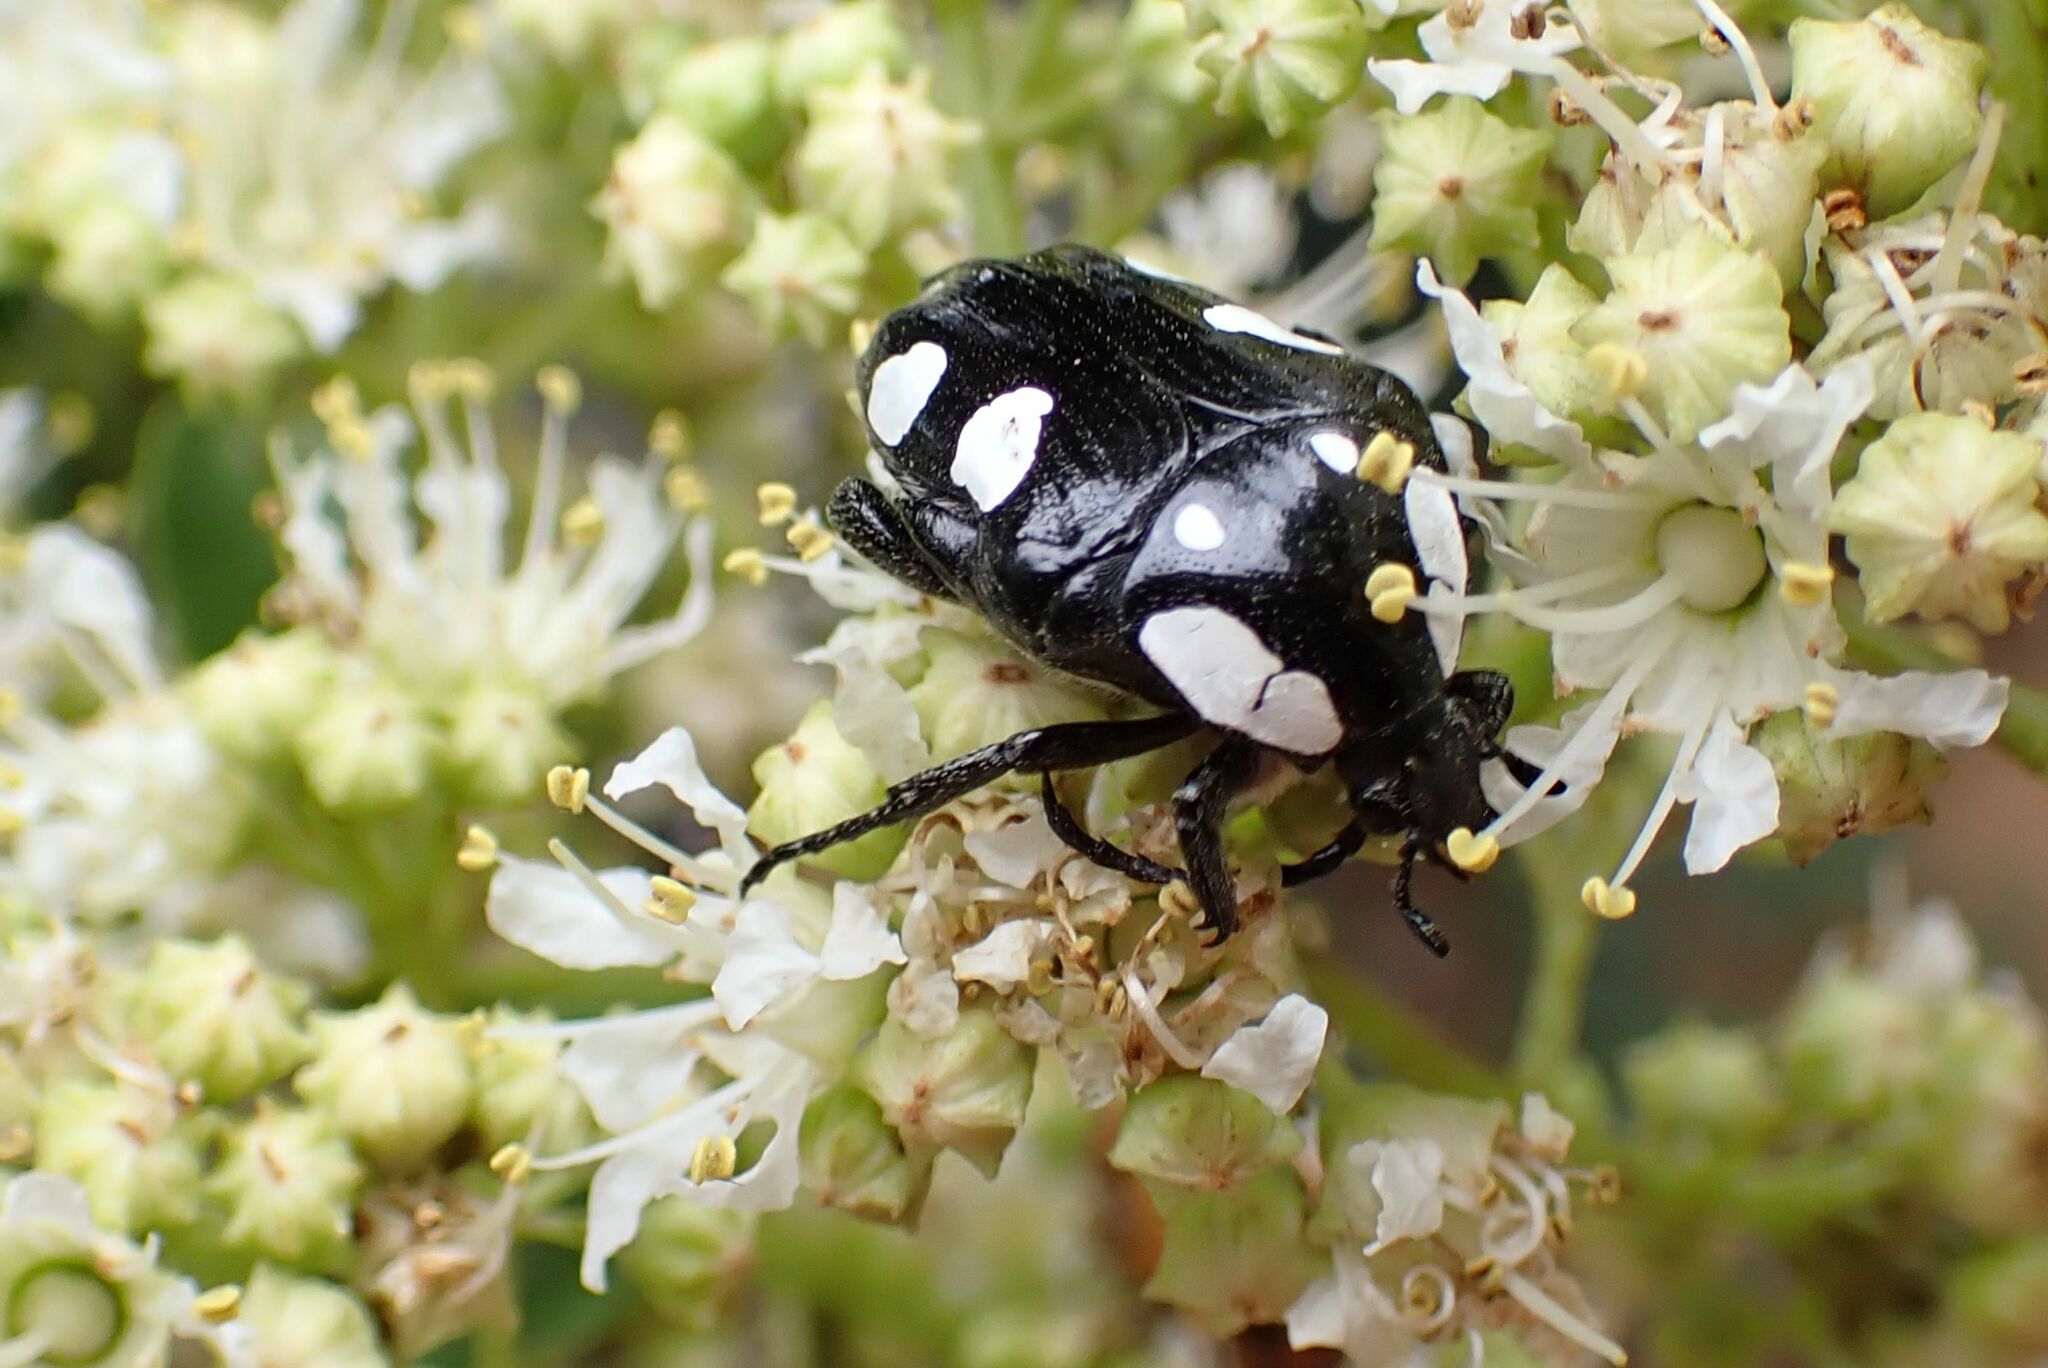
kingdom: Animalia
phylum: Arthropoda
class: Insecta
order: Coleoptera
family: Scarabaeidae
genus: Mausoleopsis
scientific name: Mausoleopsis amabilis
